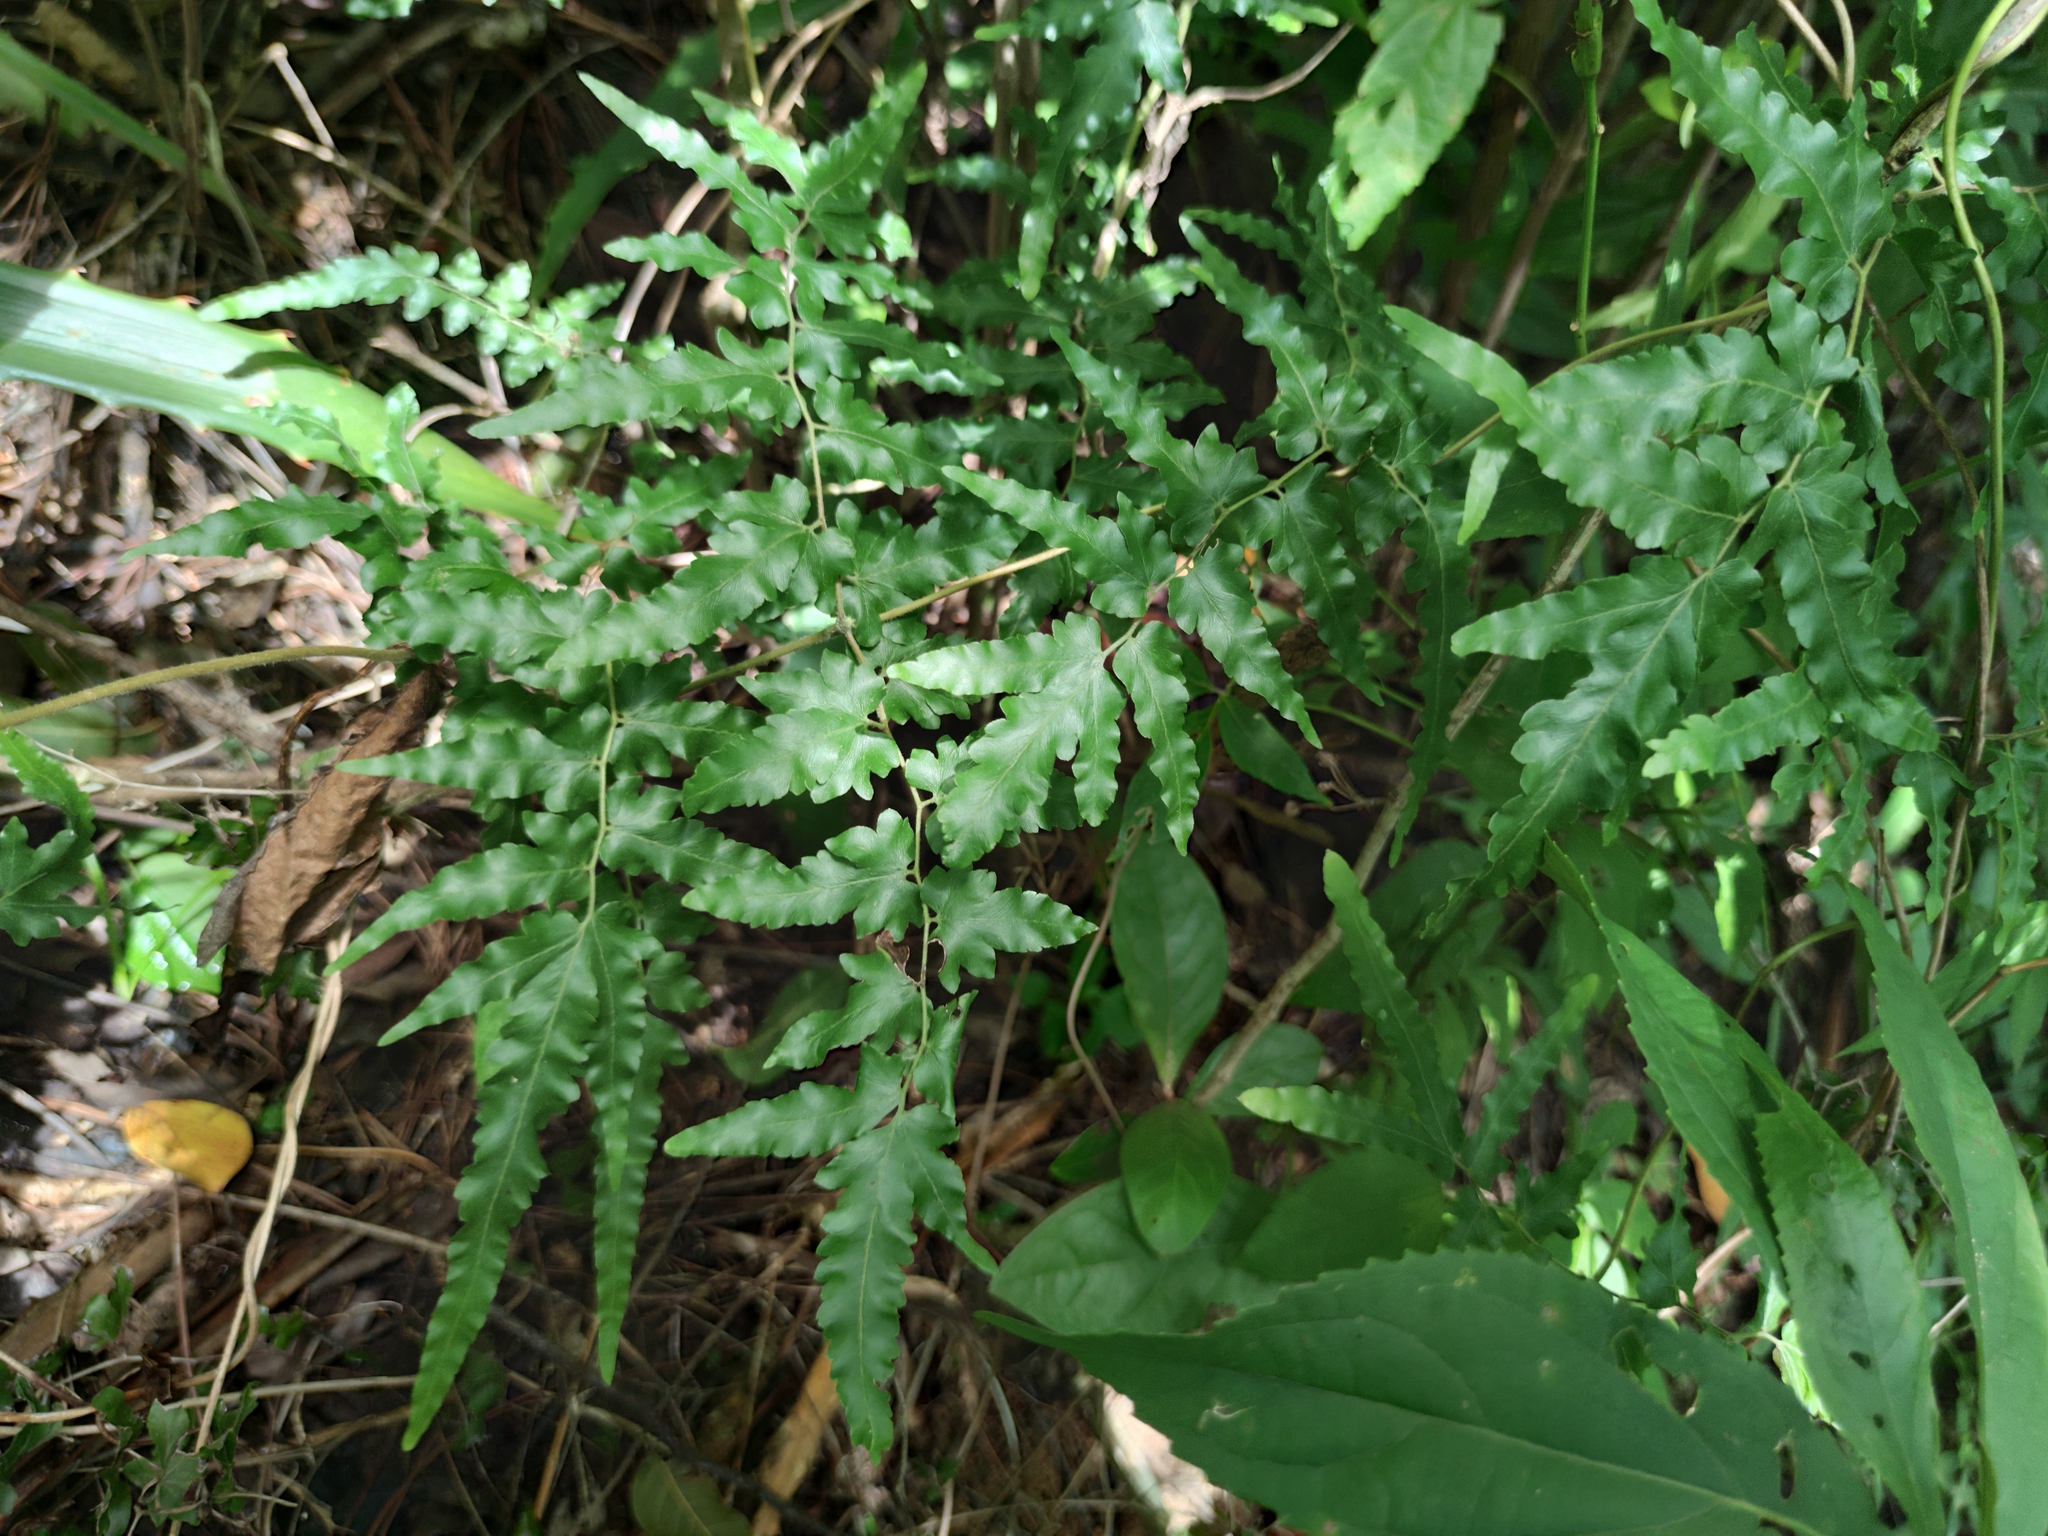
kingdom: Plantae
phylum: Tracheophyta
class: Polypodiopsida
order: Schizaeales
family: Lygodiaceae
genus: Lygodium
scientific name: Lygodium venustum
